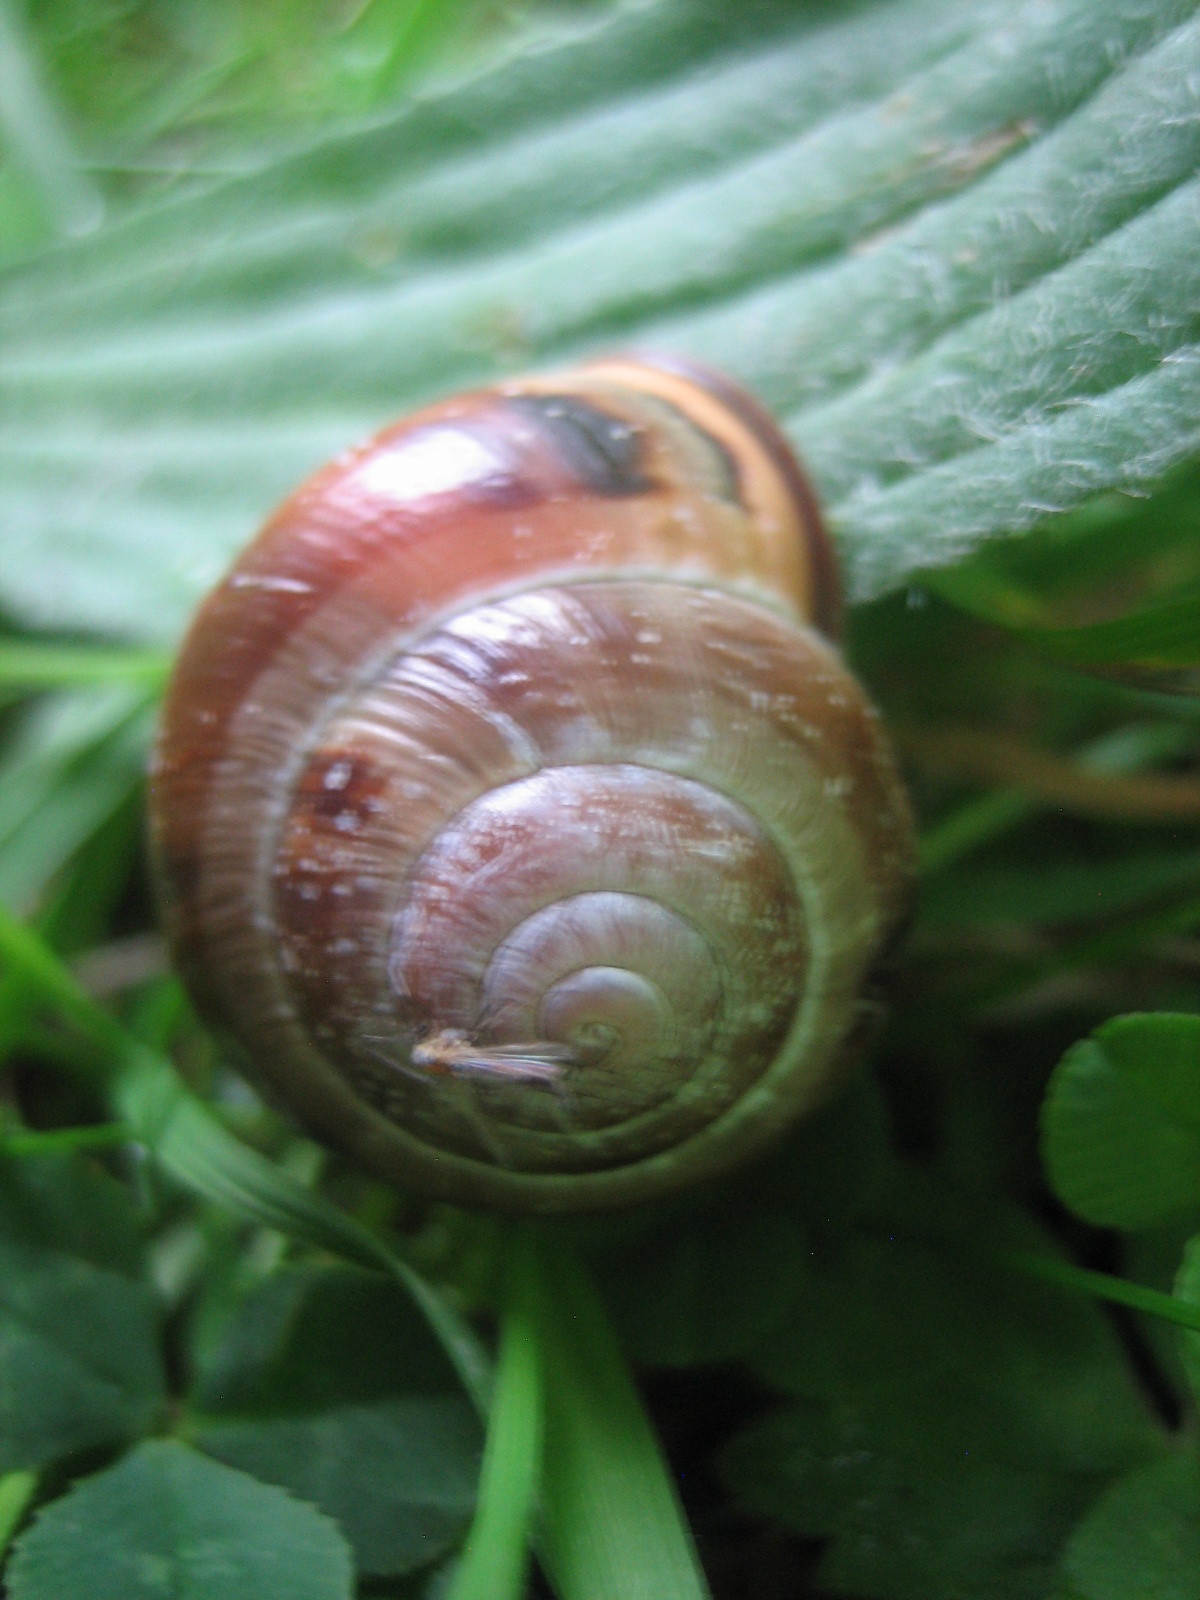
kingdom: Animalia
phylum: Mollusca
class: Gastropoda
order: Stylommatophora
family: Helicidae
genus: Cepaea
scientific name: Cepaea nemoralis
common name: Grovesnail
